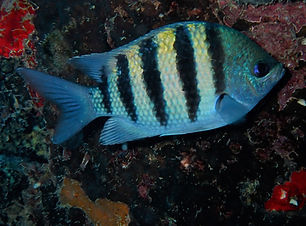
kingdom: Animalia
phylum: Chordata
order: Perciformes
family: Pomacentridae
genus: Abudefduf
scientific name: Abudefduf saxatilis
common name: Sergeant major
